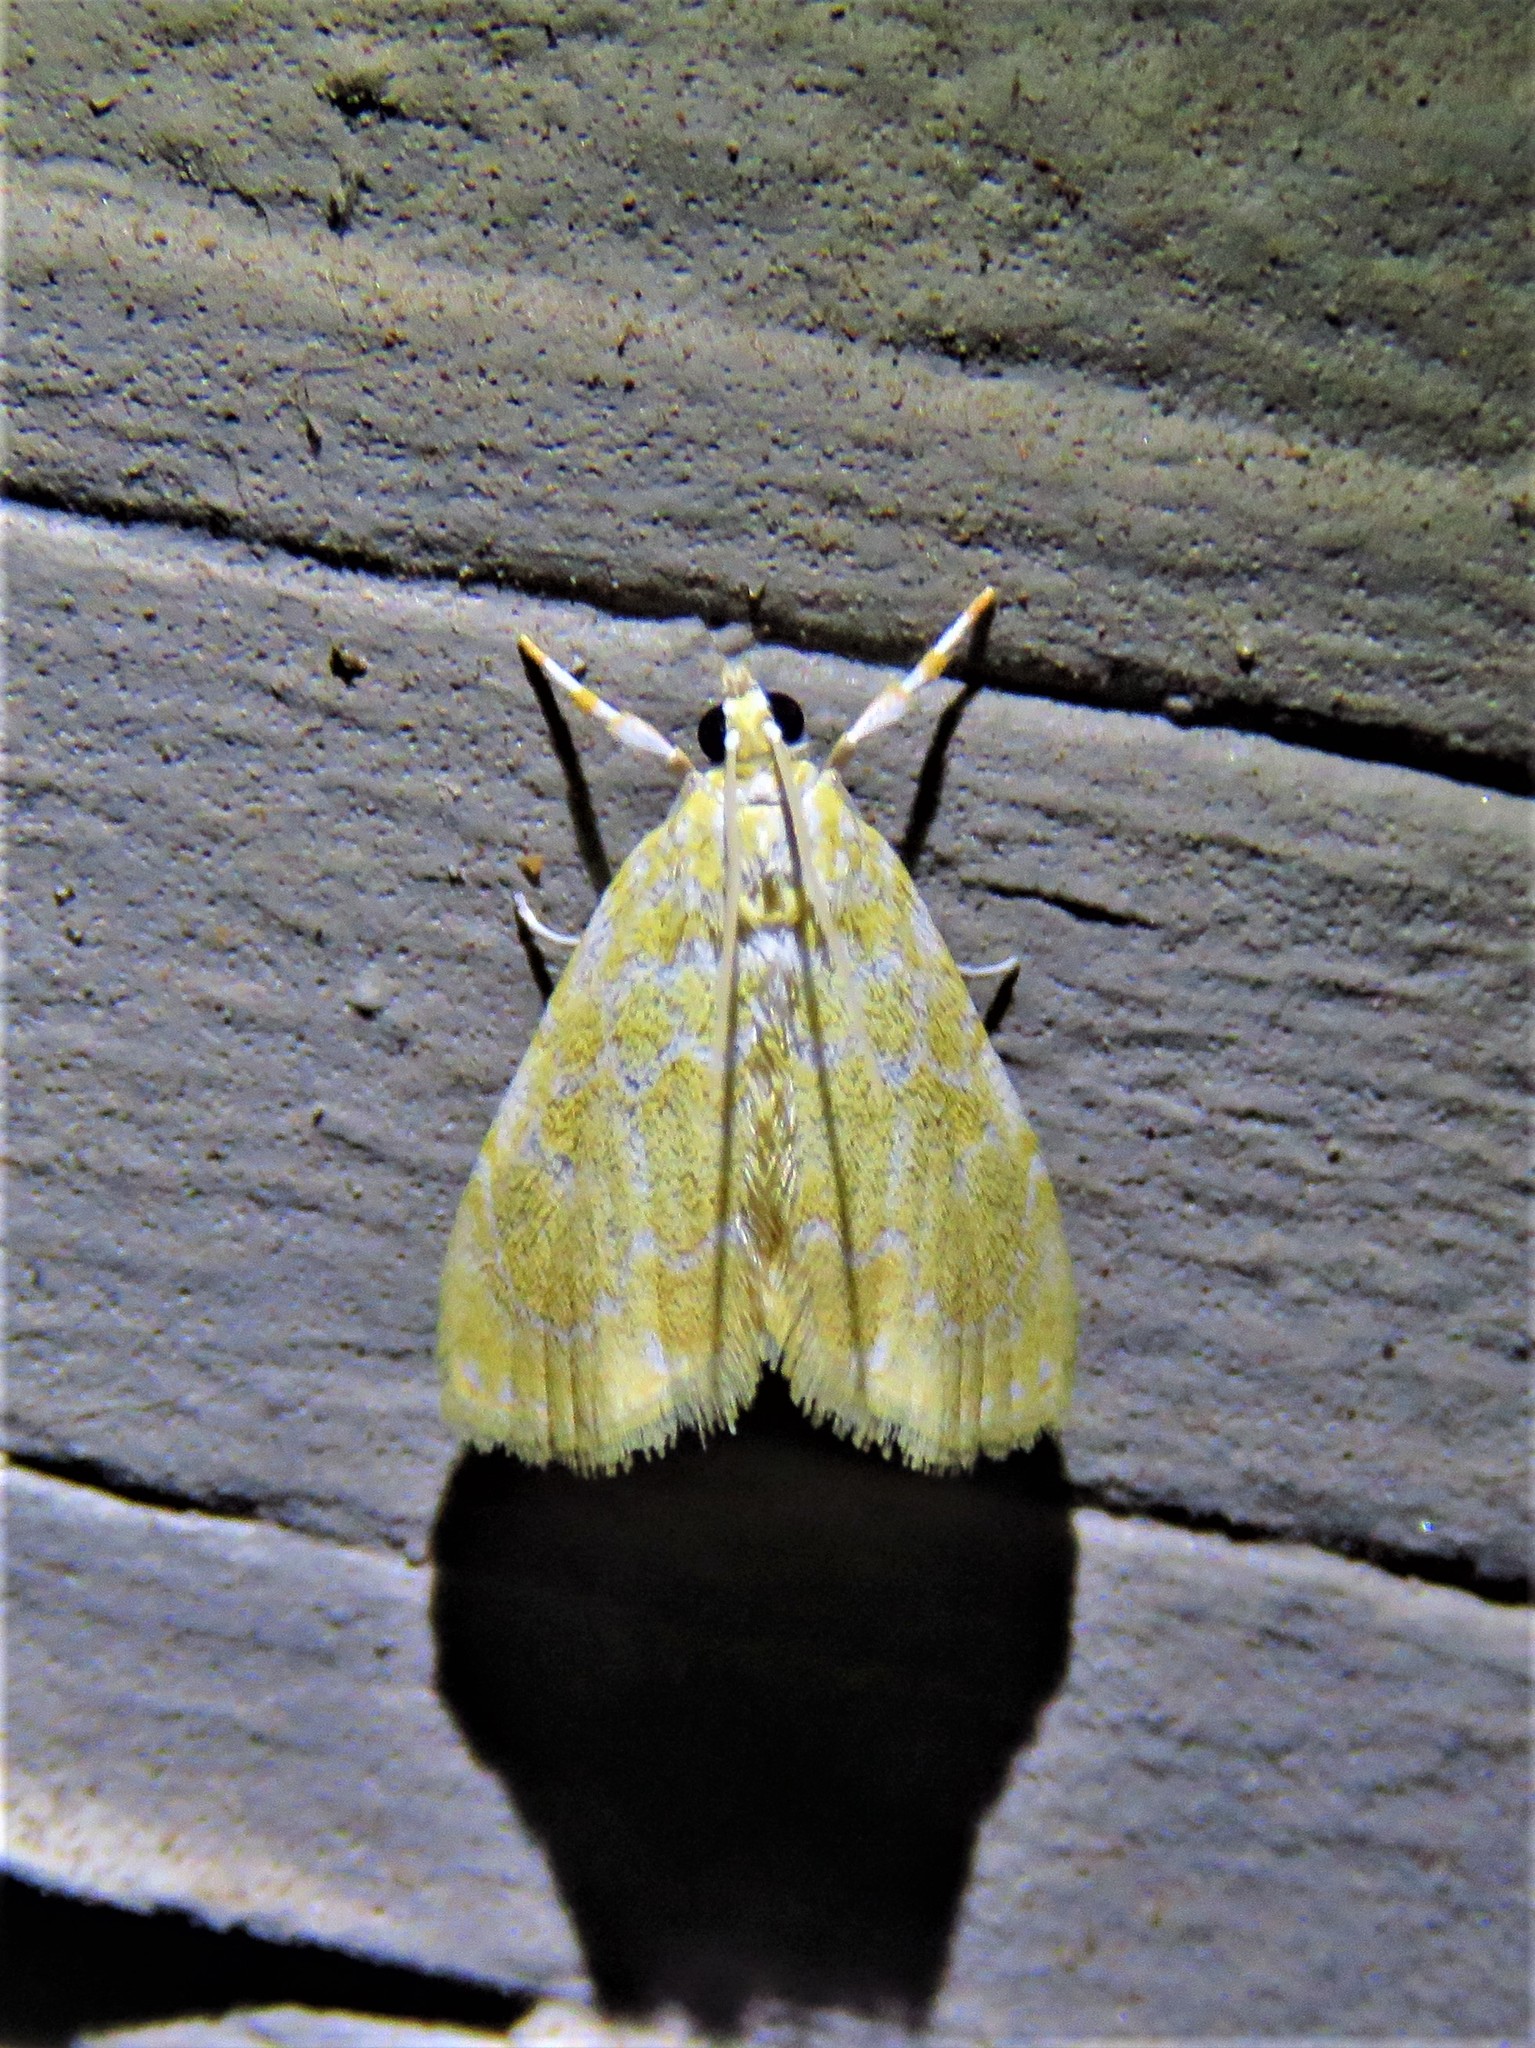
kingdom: Animalia
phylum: Arthropoda
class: Insecta
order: Lepidoptera
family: Crambidae
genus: Xanthophysa
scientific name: Xanthophysa psychicalis
